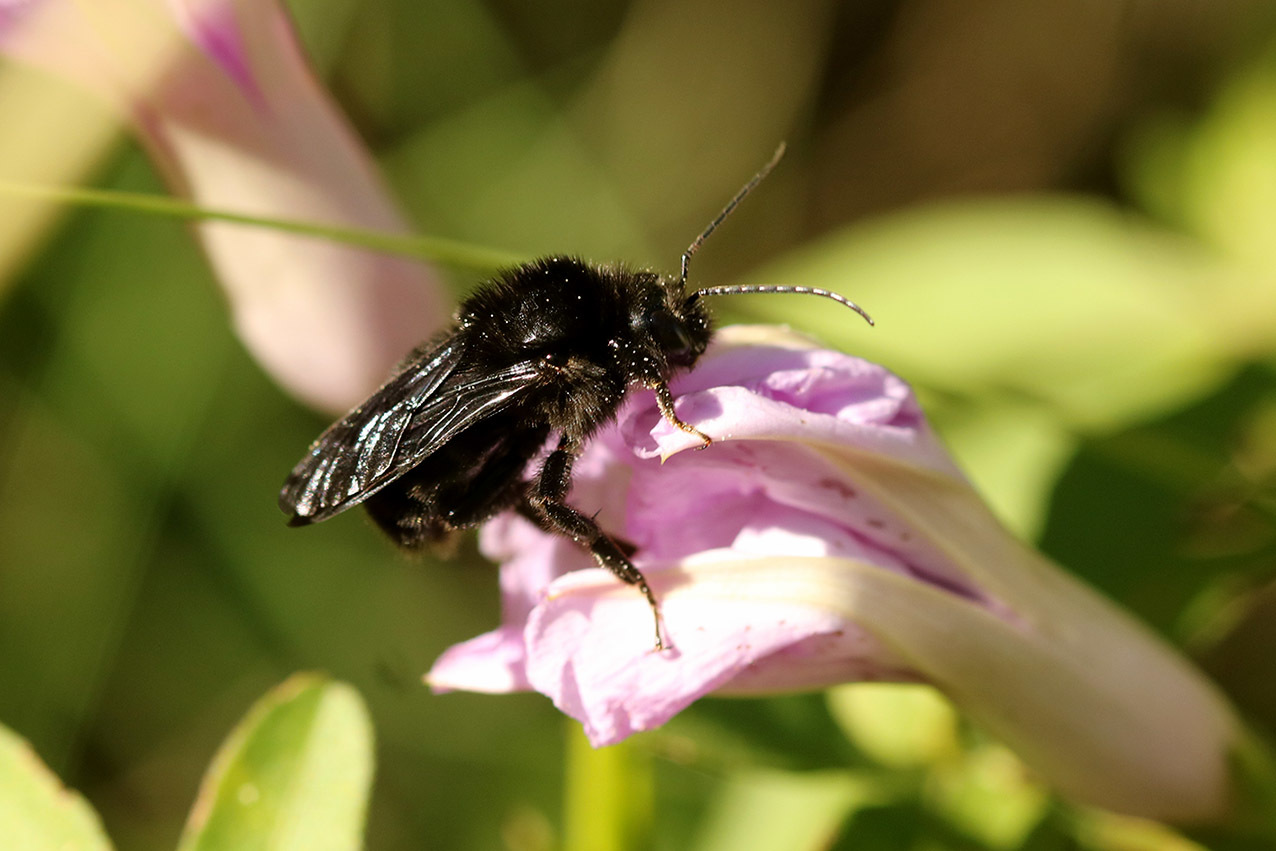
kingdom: Animalia
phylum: Arthropoda
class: Insecta
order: Hymenoptera
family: Apidae
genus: Bombus
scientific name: Bombus pauloensis
